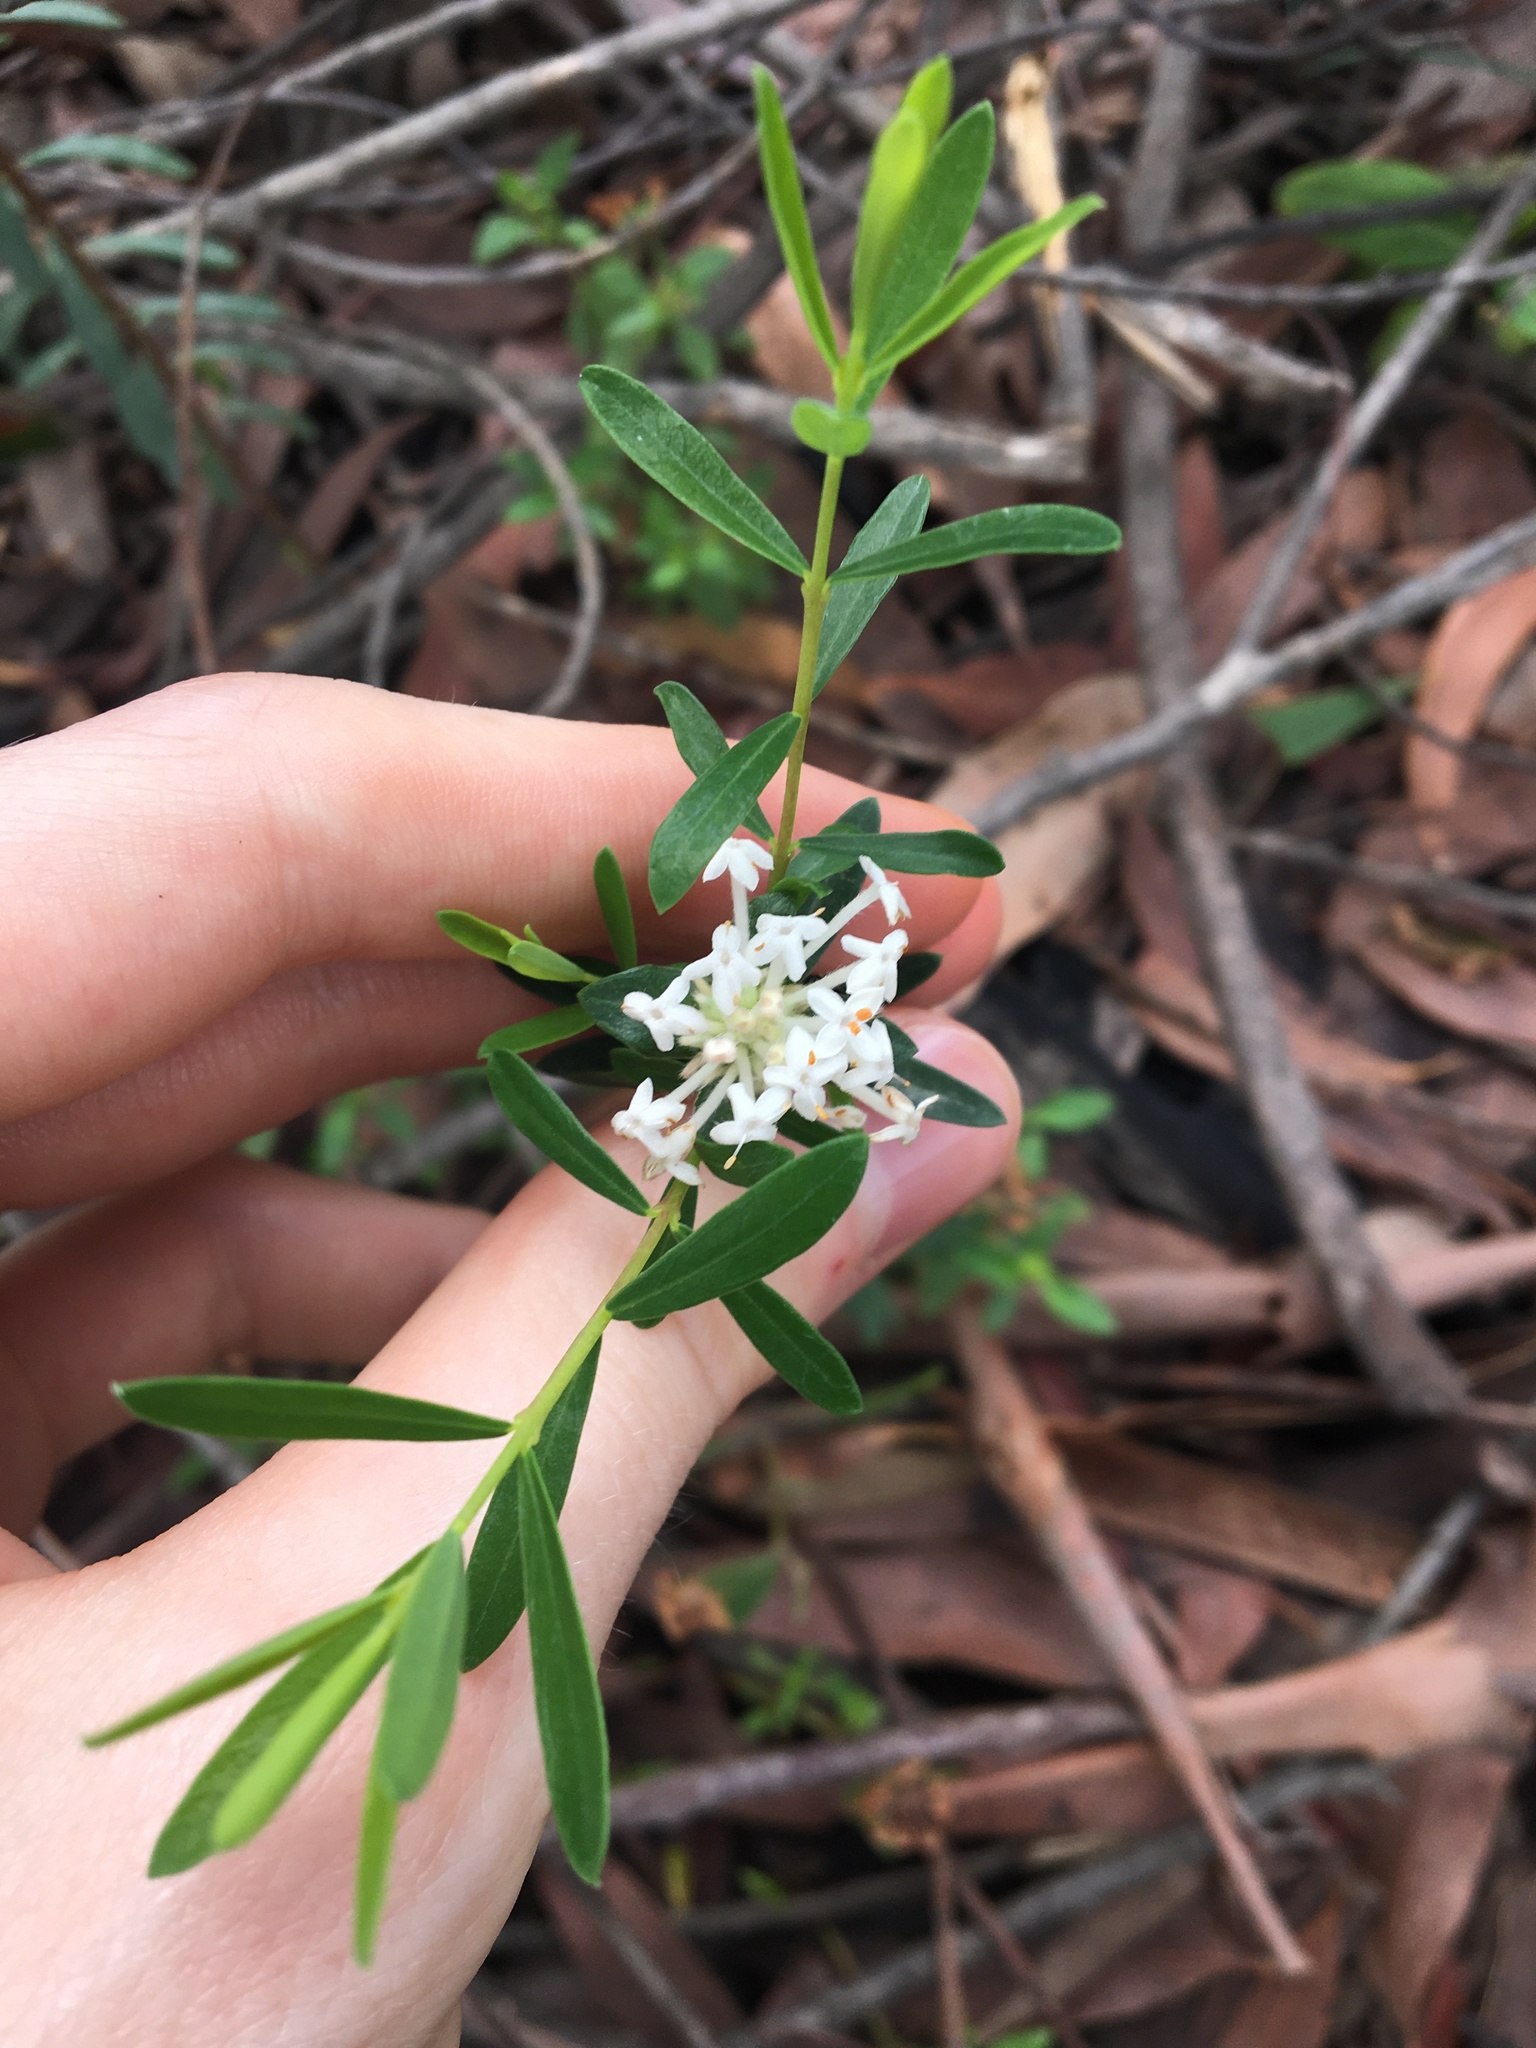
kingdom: Plantae
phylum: Tracheophyta
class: Magnoliopsida
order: Malvales
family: Thymelaeaceae
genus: Pimelea
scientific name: Pimelea linifolia
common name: Queen-of-the-bush
